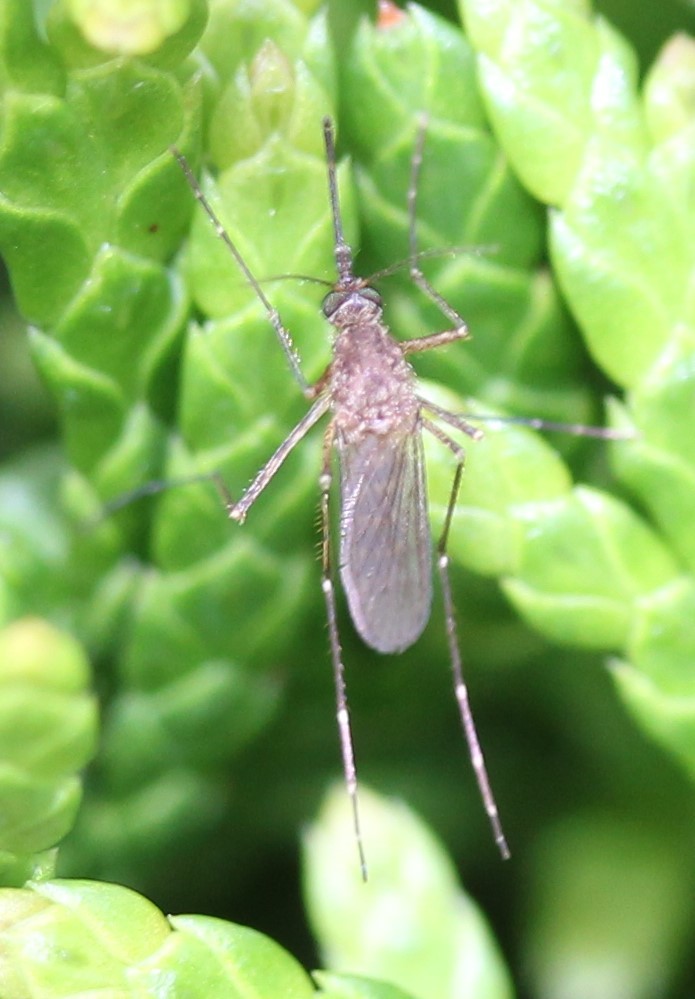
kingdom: Animalia
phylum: Arthropoda
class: Insecta
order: Diptera
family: Culicidae
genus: Aedes
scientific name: Aedes vexans
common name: Inland floodwater mosquito
